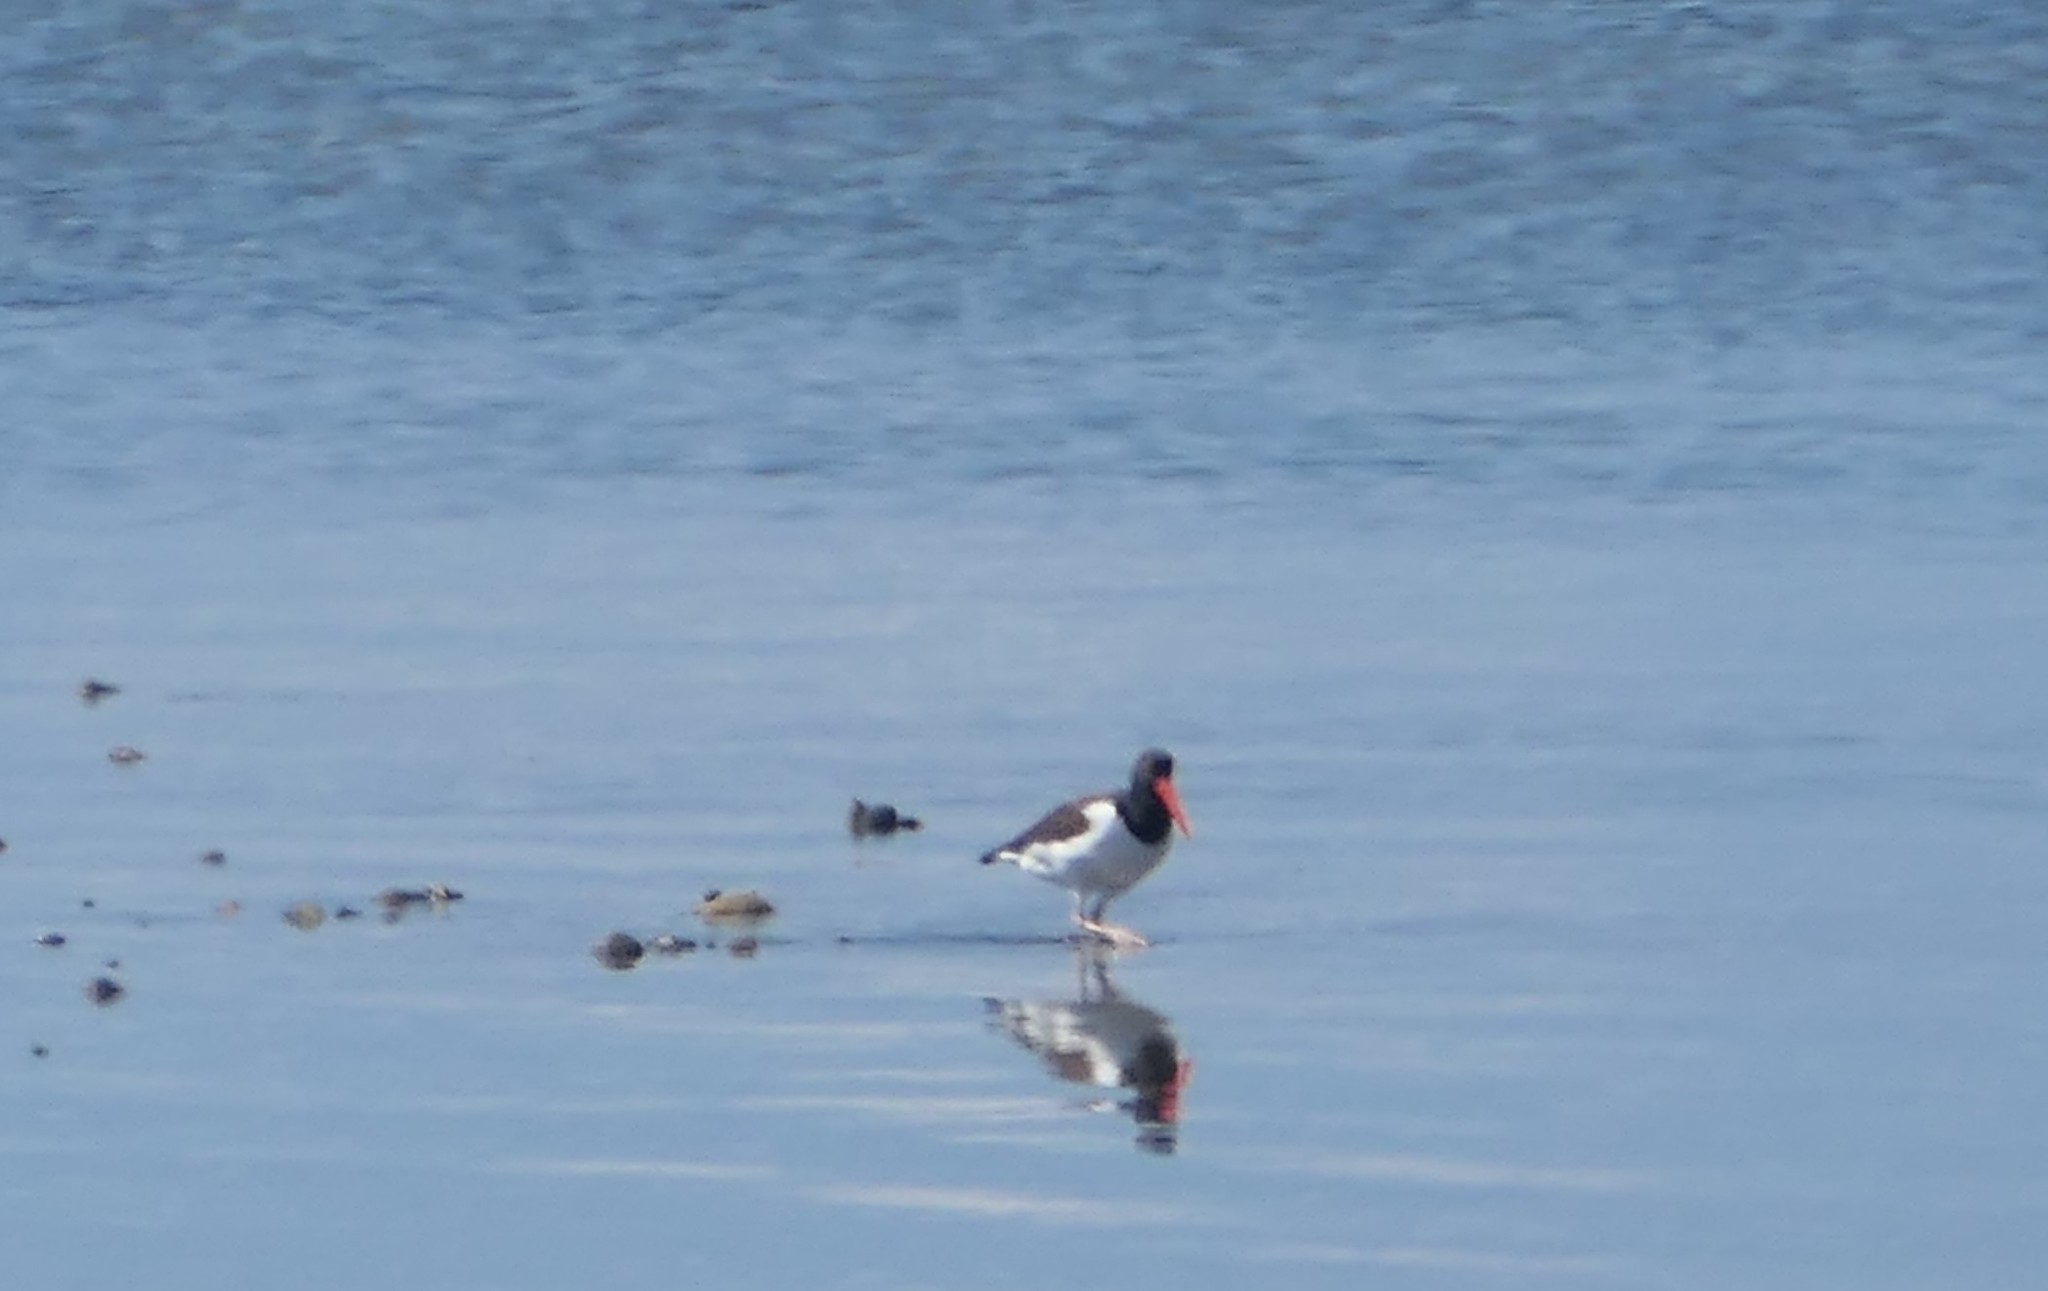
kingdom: Animalia
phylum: Chordata
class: Aves
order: Charadriiformes
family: Haematopodidae
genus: Haematopus
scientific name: Haematopus palliatus
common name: American oystercatcher
